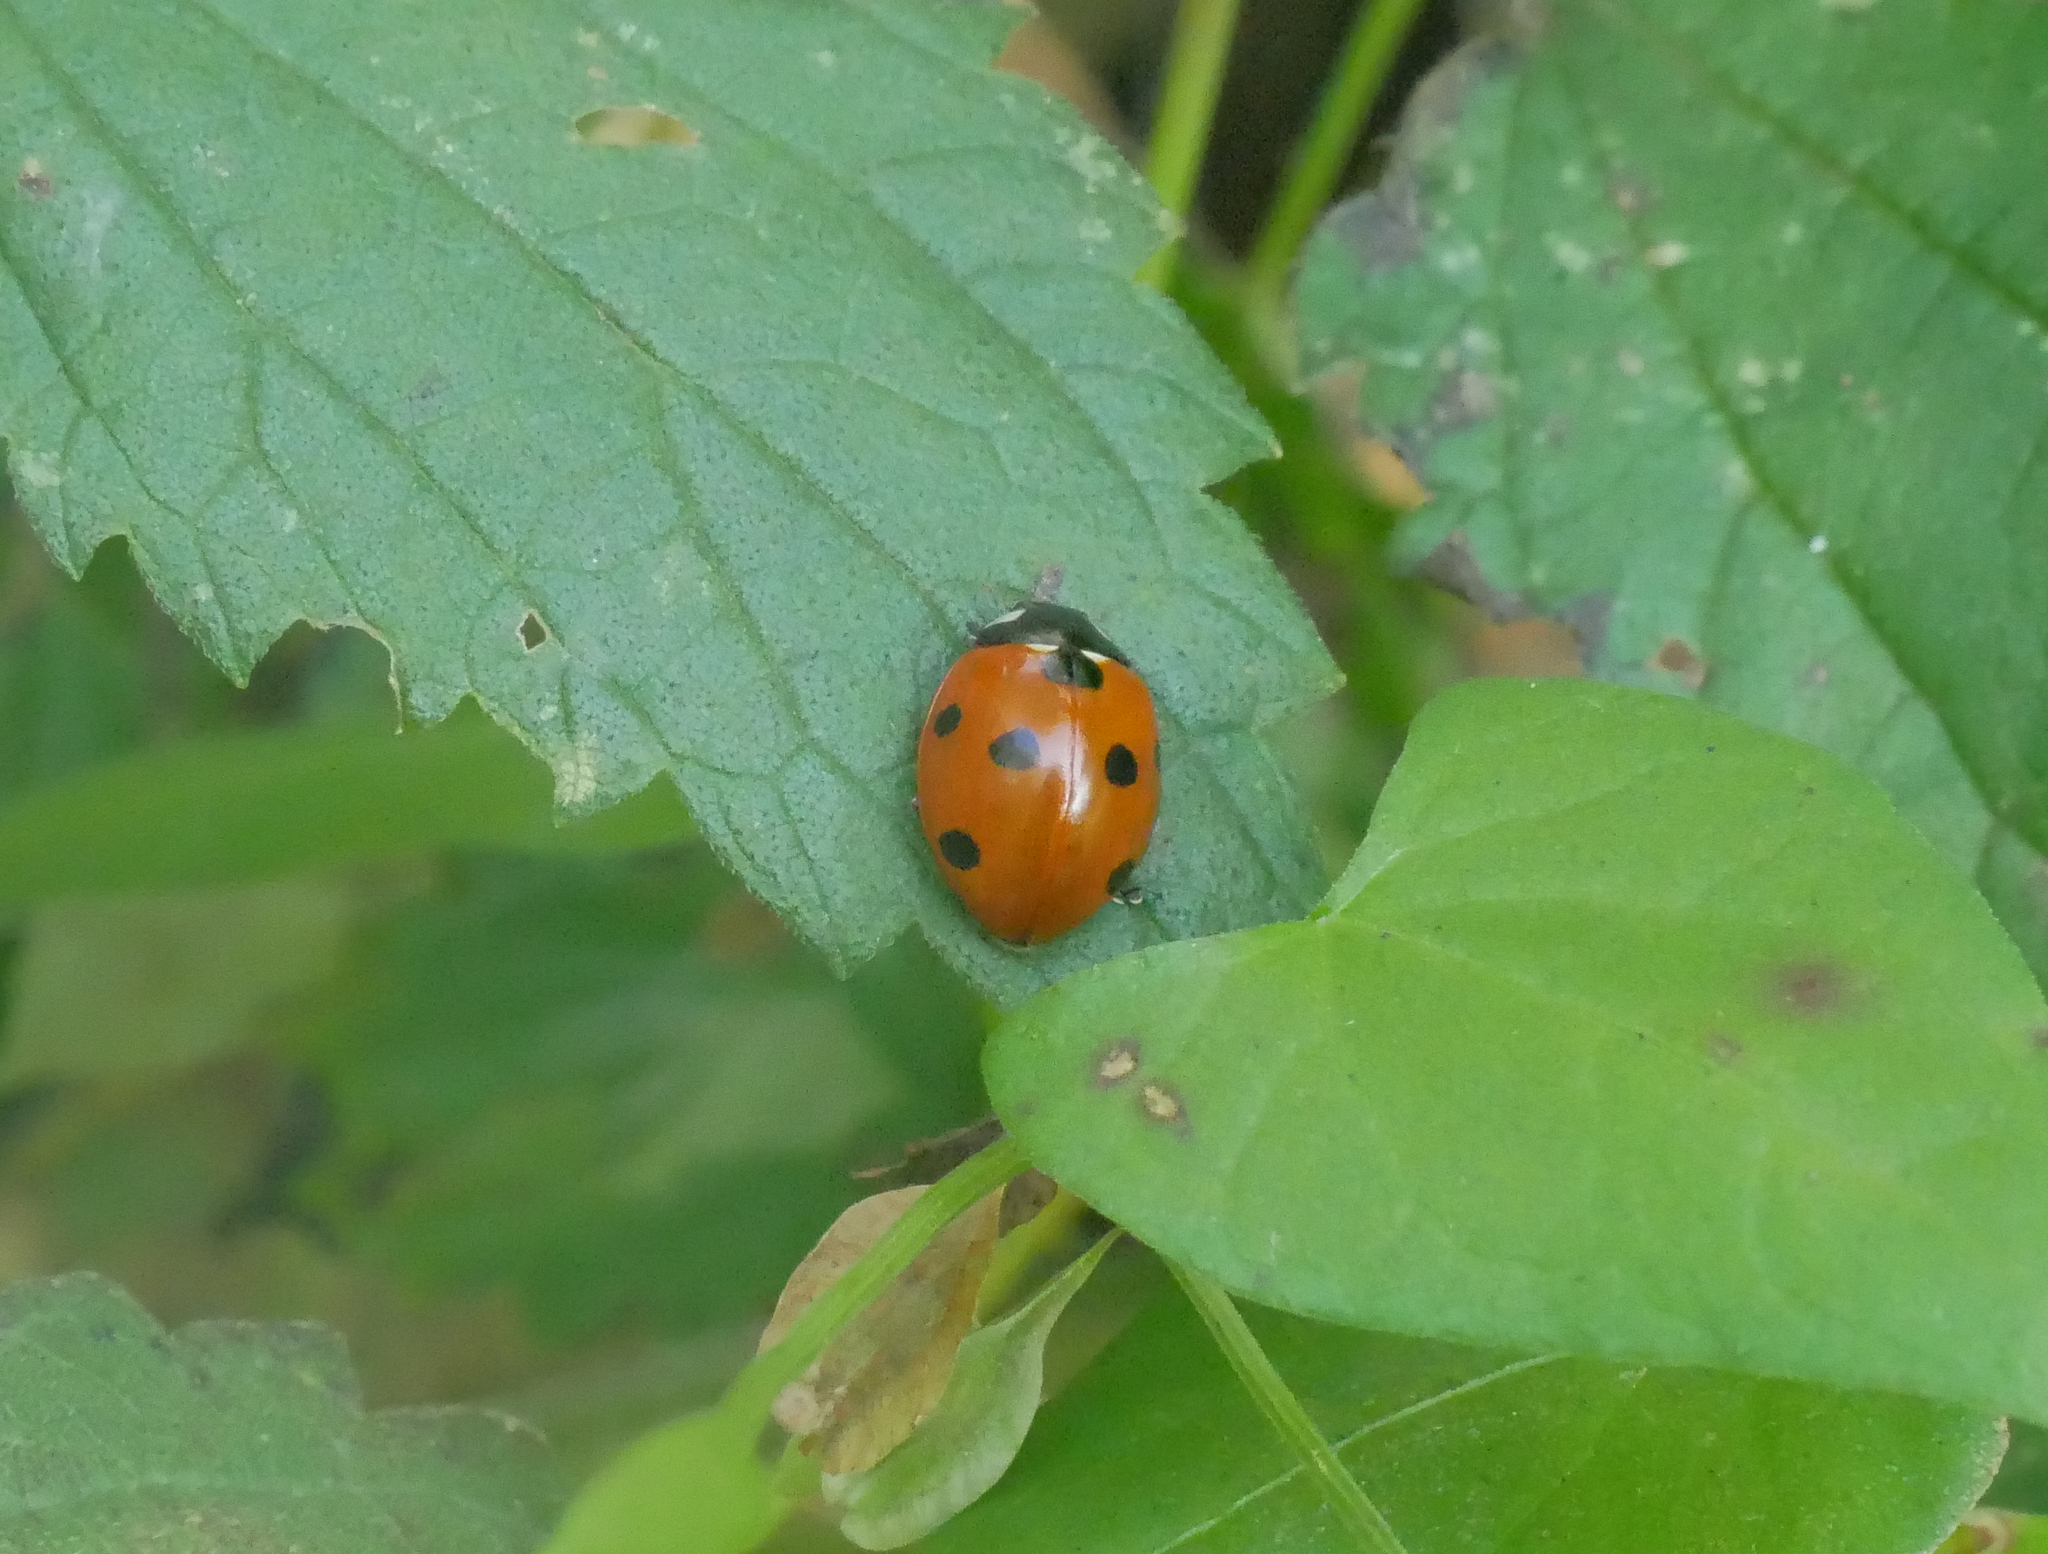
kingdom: Animalia
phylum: Arthropoda
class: Insecta
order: Coleoptera
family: Coccinellidae
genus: Coccinella
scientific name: Coccinella septempunctata
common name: Sevenspotted lady beetle
